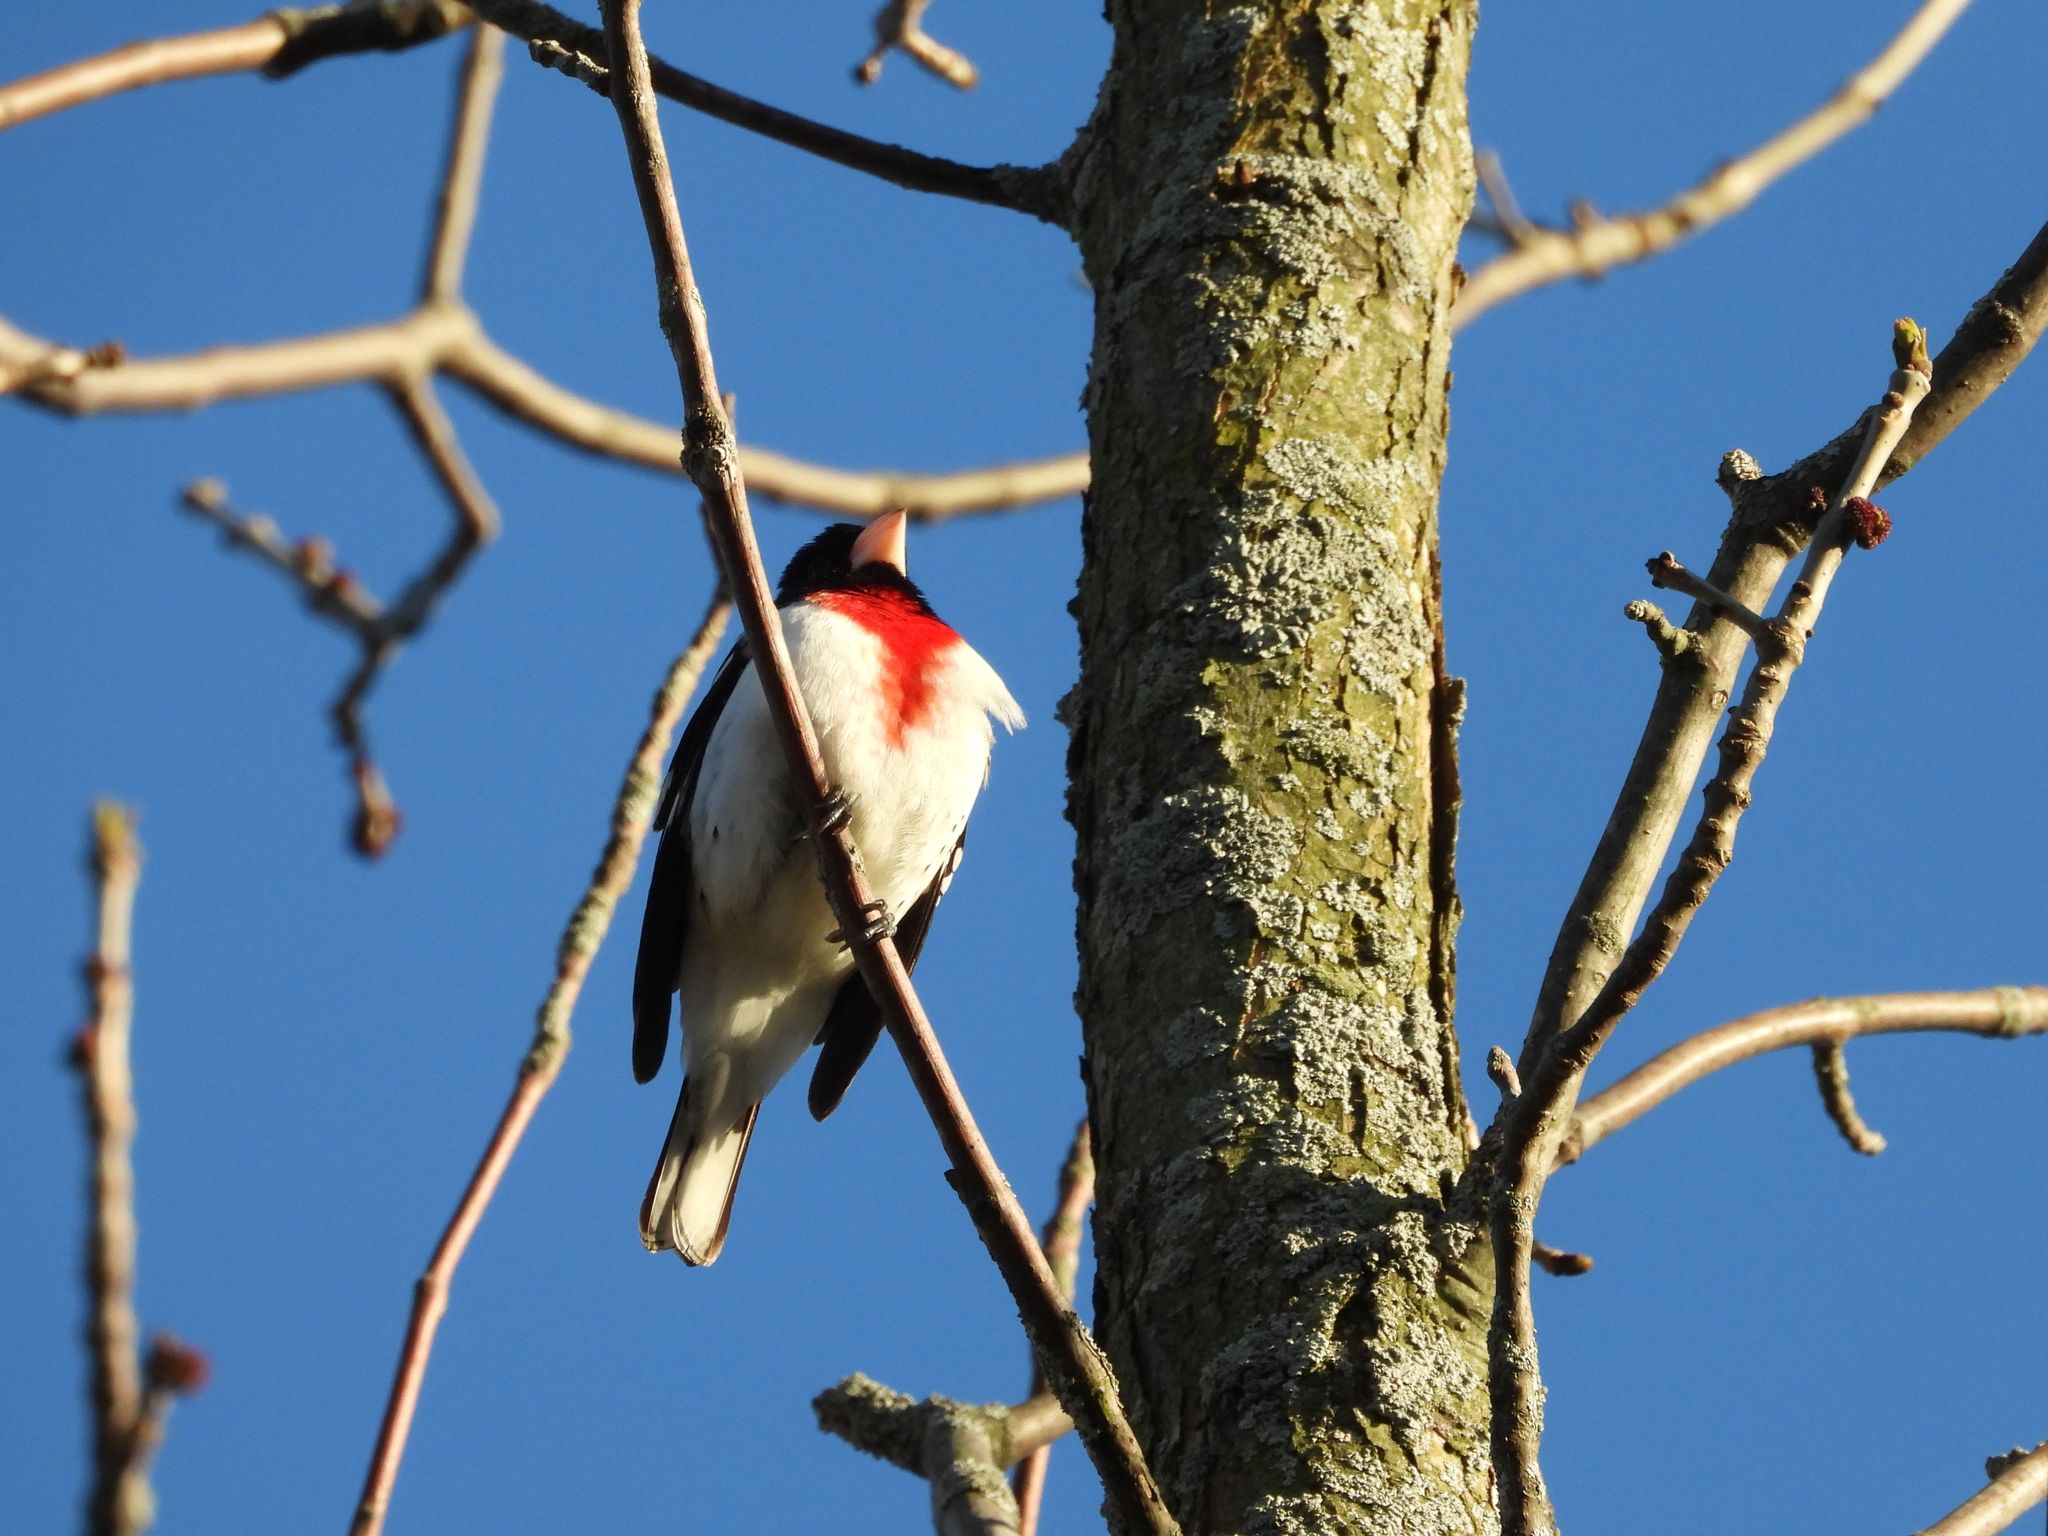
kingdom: Animalia
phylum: Chordata
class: Aves
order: Passeriformes
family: Cardinalidae
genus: Pheucticus
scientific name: Pheucticus ludovicianus
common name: Rose-breasted grosbeak
